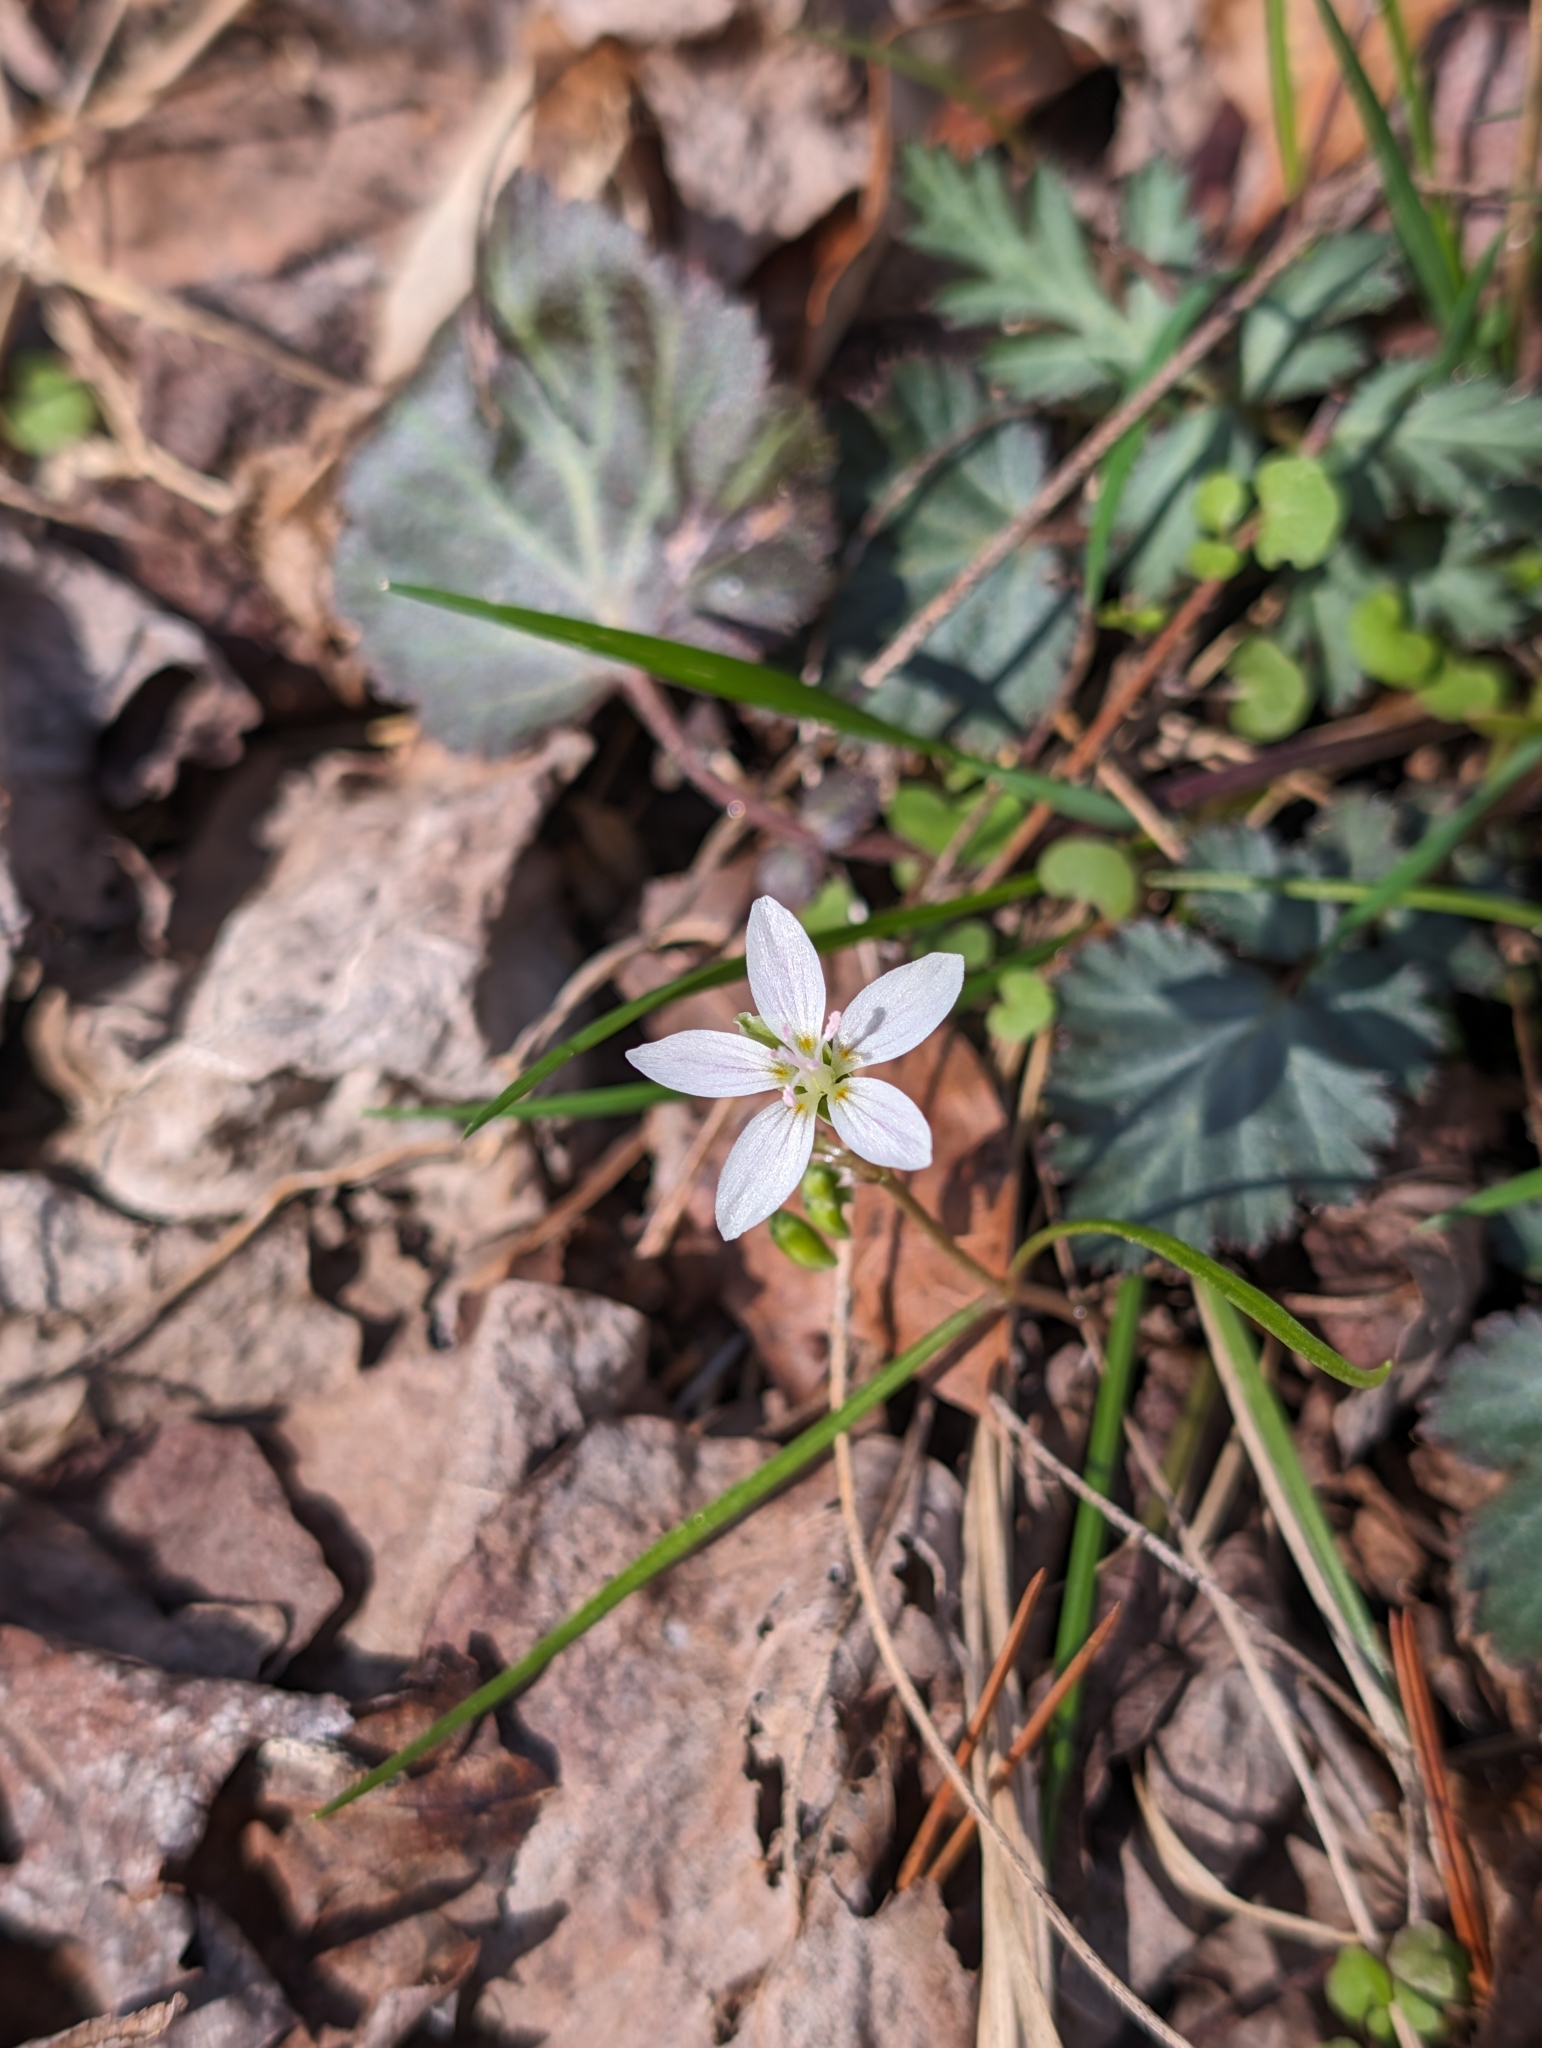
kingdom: Plantae
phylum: Tracheophyta
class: Magnoliopsida
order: Caryophyllales
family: Montiaceae
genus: Claytonia
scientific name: Claytonia virginica
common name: Virginia springbeauty
